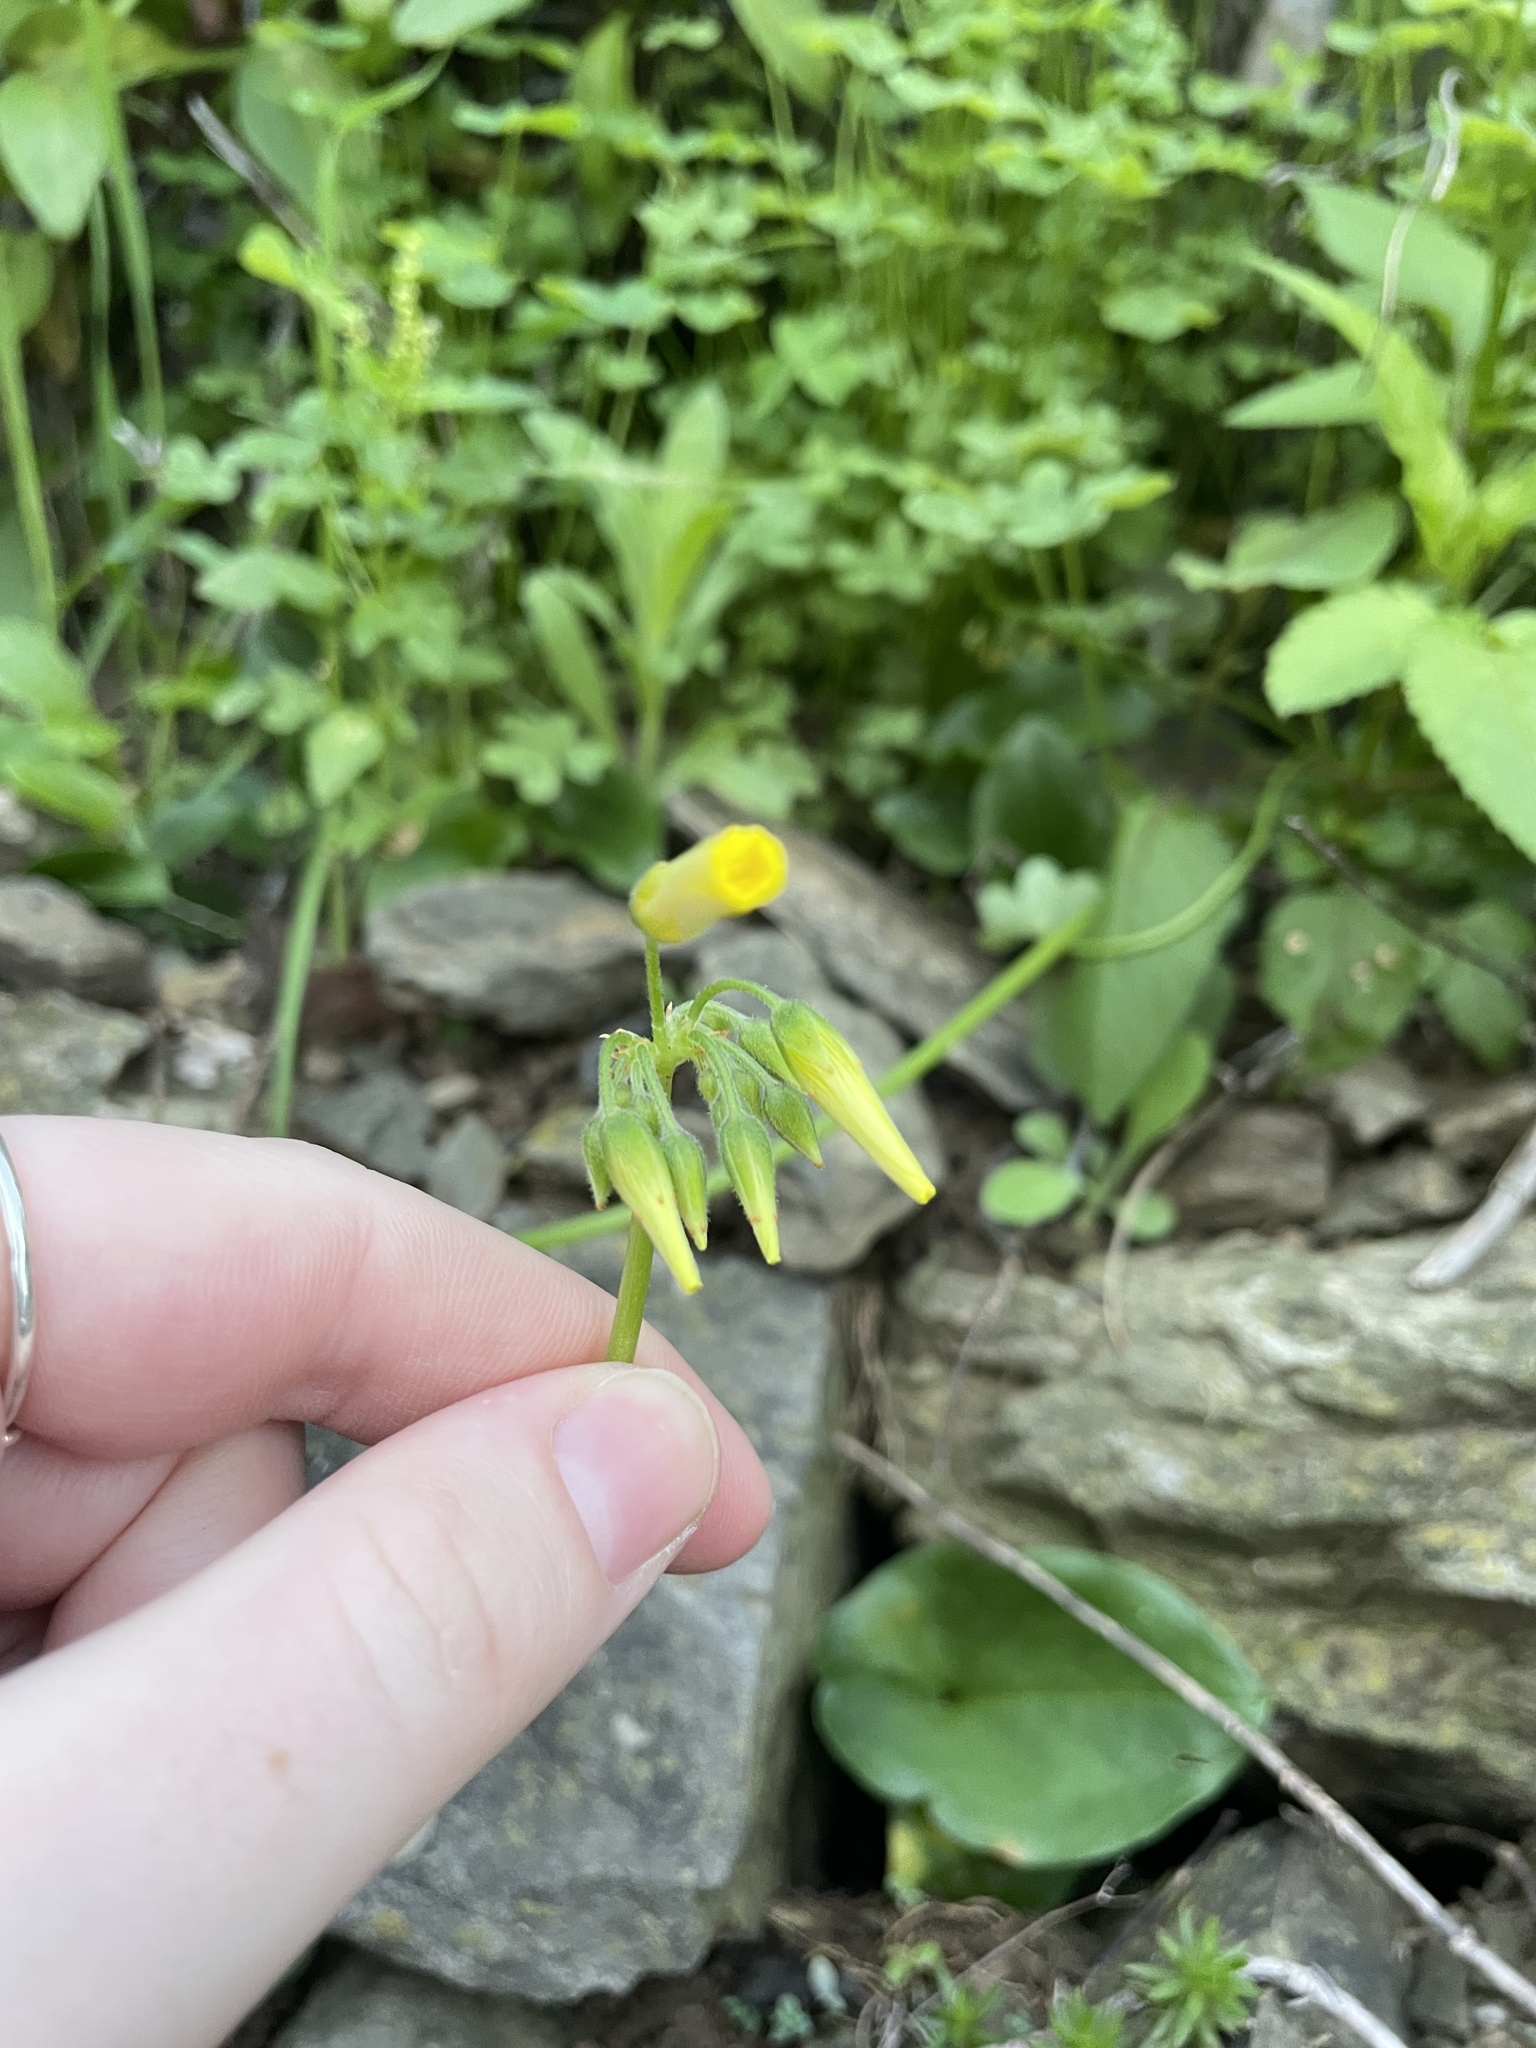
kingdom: Plantae
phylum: Tracheophyta
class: Magnoliopsida
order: Oxalidales
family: Oxalidaceae
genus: Oxalis
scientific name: Oxalis pes-caprae
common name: Bermuda-buttercup
